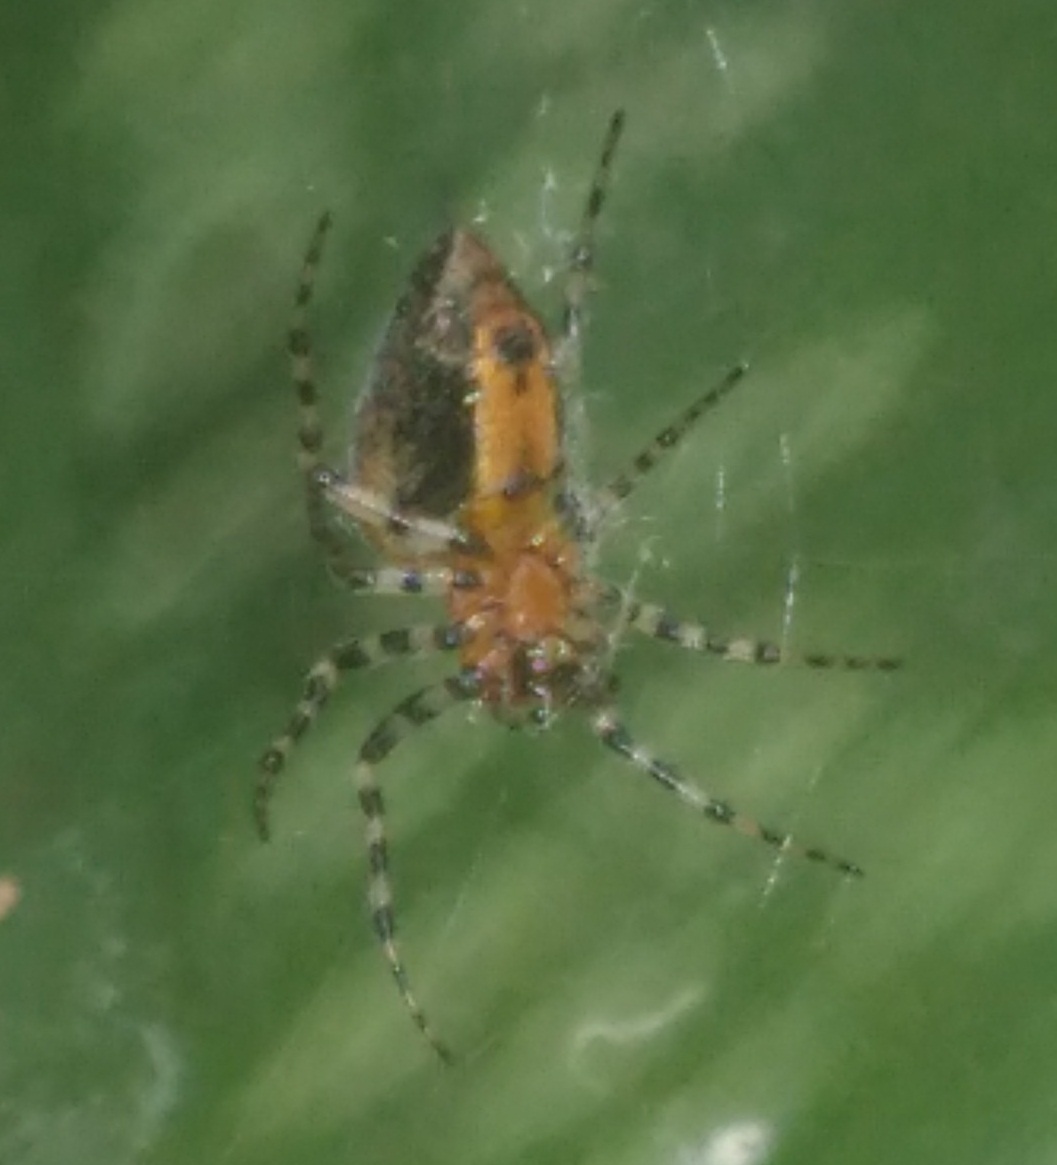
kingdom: Animalia
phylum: Arthropoda
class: Arachnida
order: Araneae
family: Araneidae
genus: Alpaida
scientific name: Alpaida gallardoi
